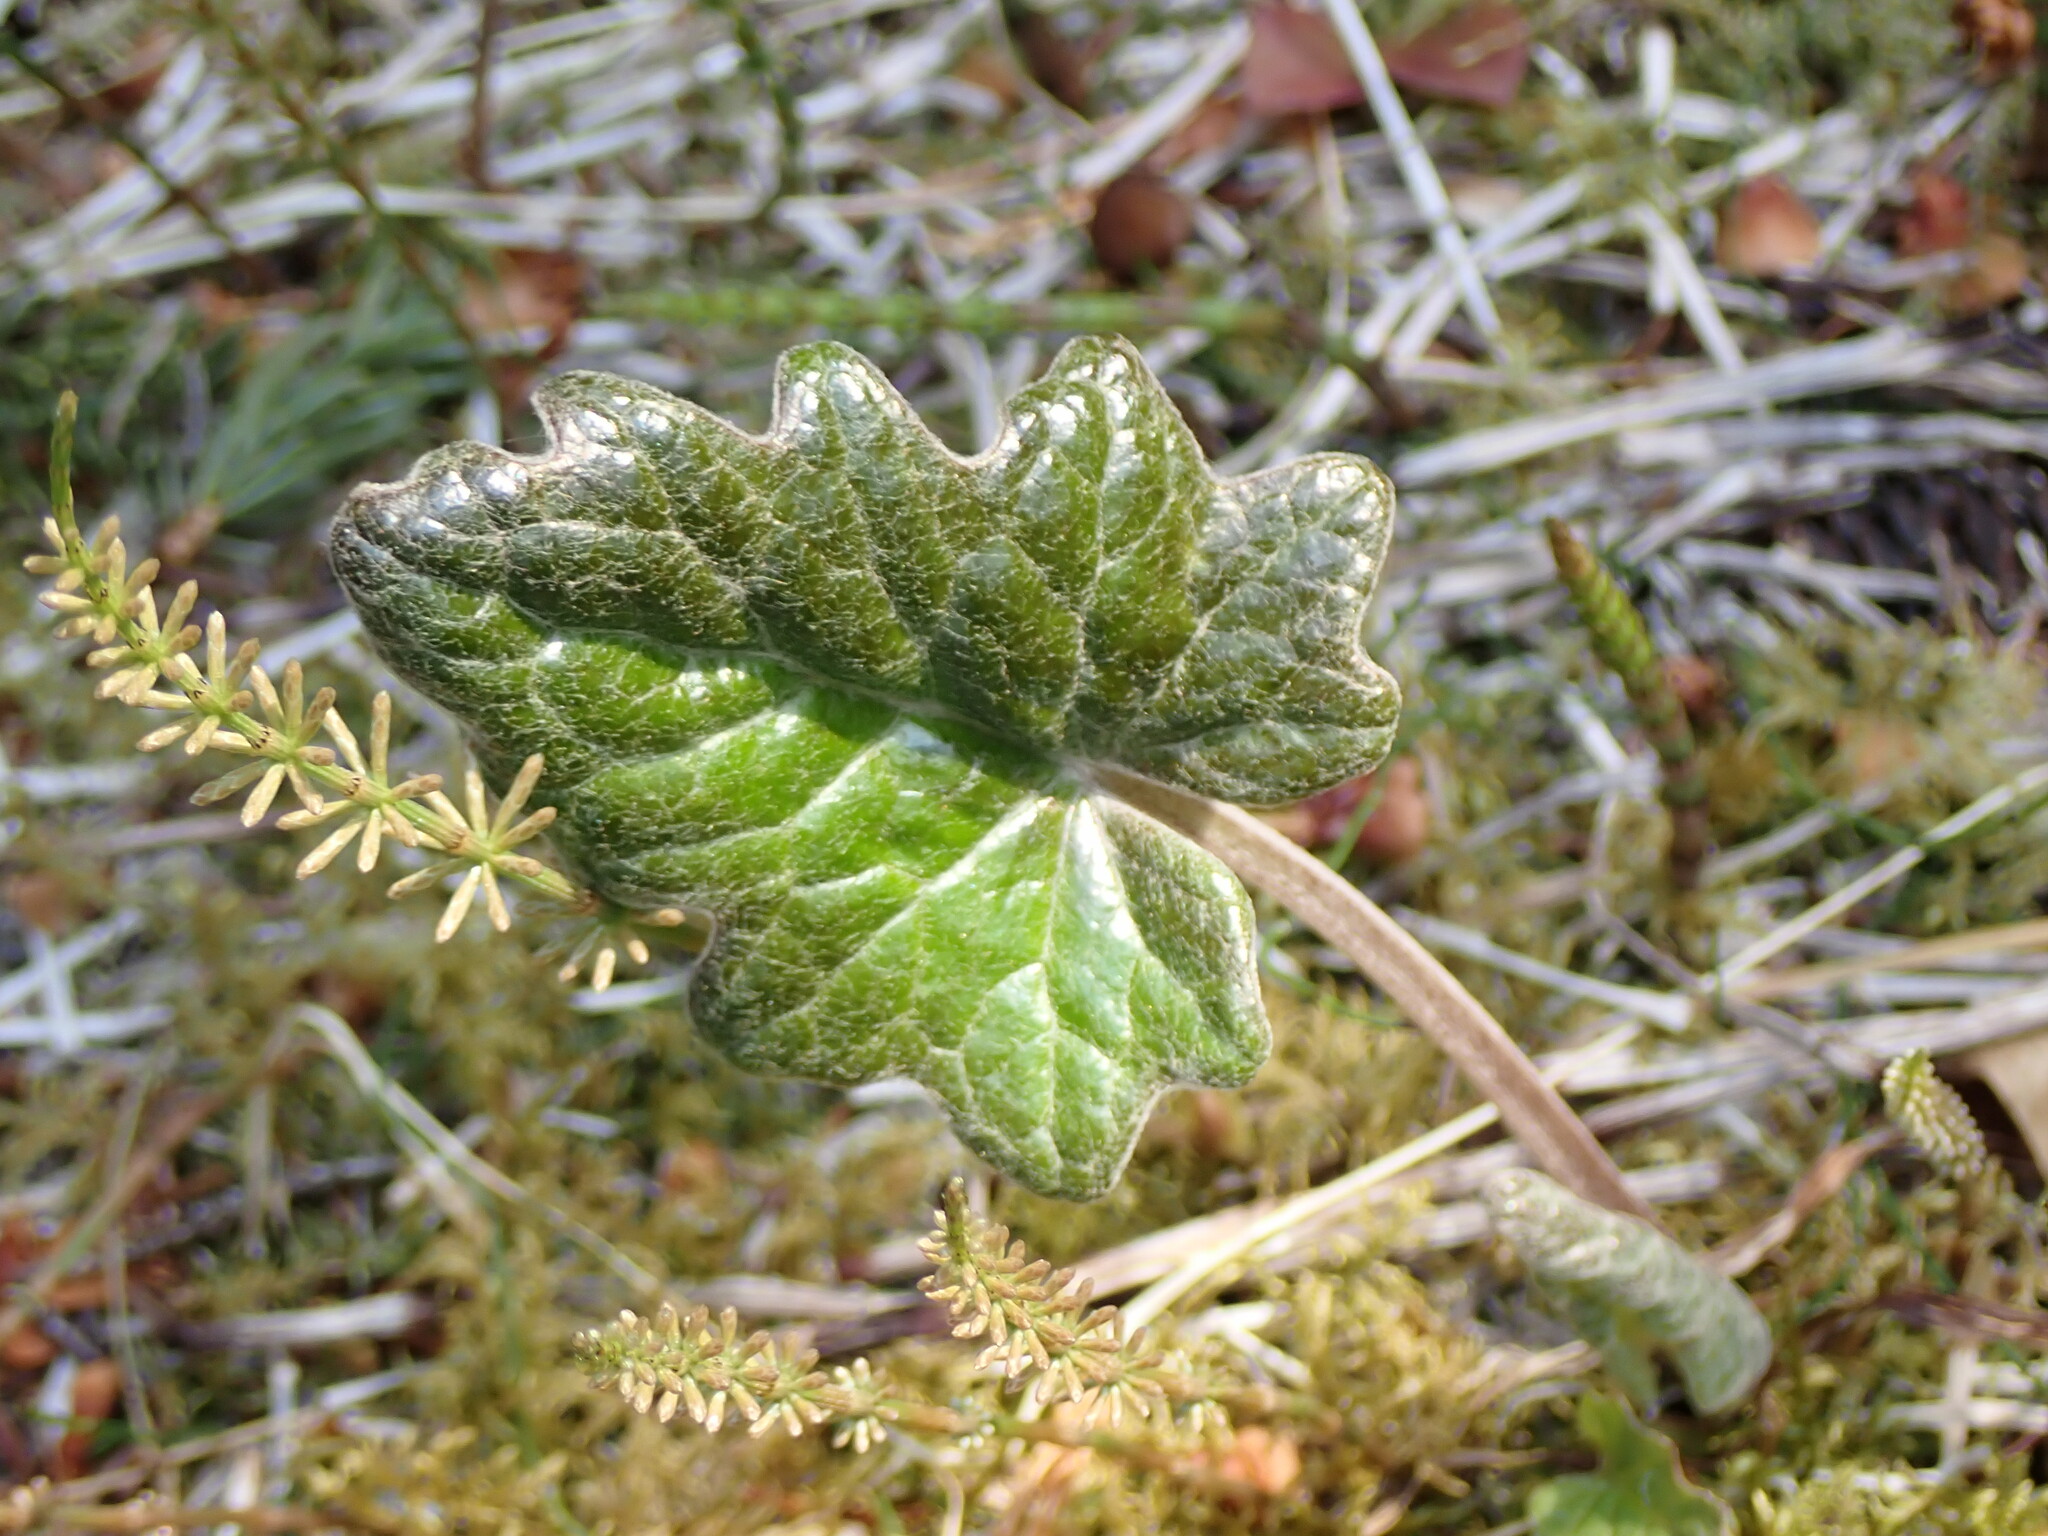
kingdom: Plantae
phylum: Tracheophyta
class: Magnoliopsida
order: Asterales
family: Asteraceae
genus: Petasites
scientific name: Petasites frigidus
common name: Arctic butterbur
